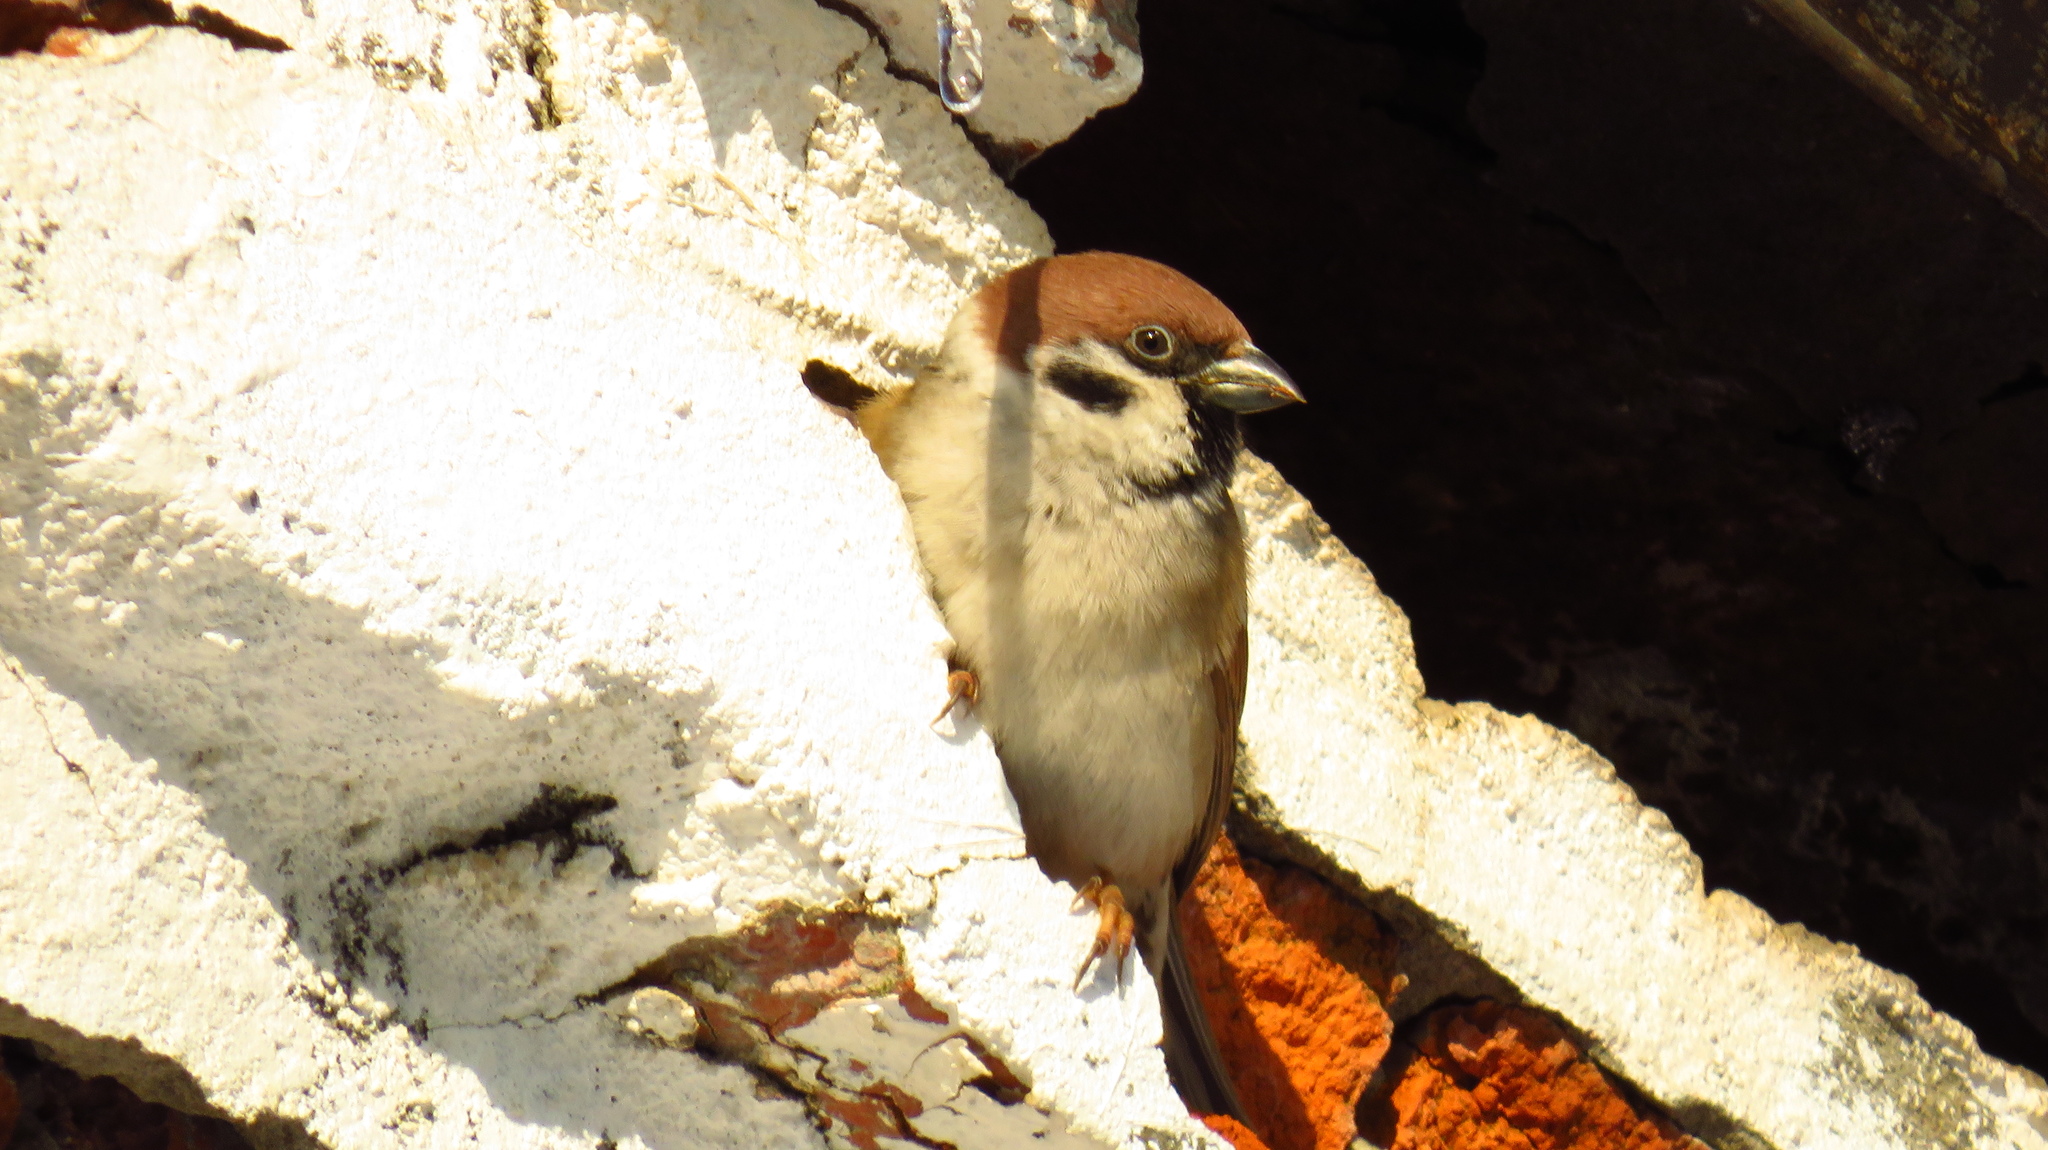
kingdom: Animalia
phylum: Chordata
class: Aves
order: Passeriformes
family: Passeridae
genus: Passer
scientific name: Passer montanus
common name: Eurasian tree sparrow
